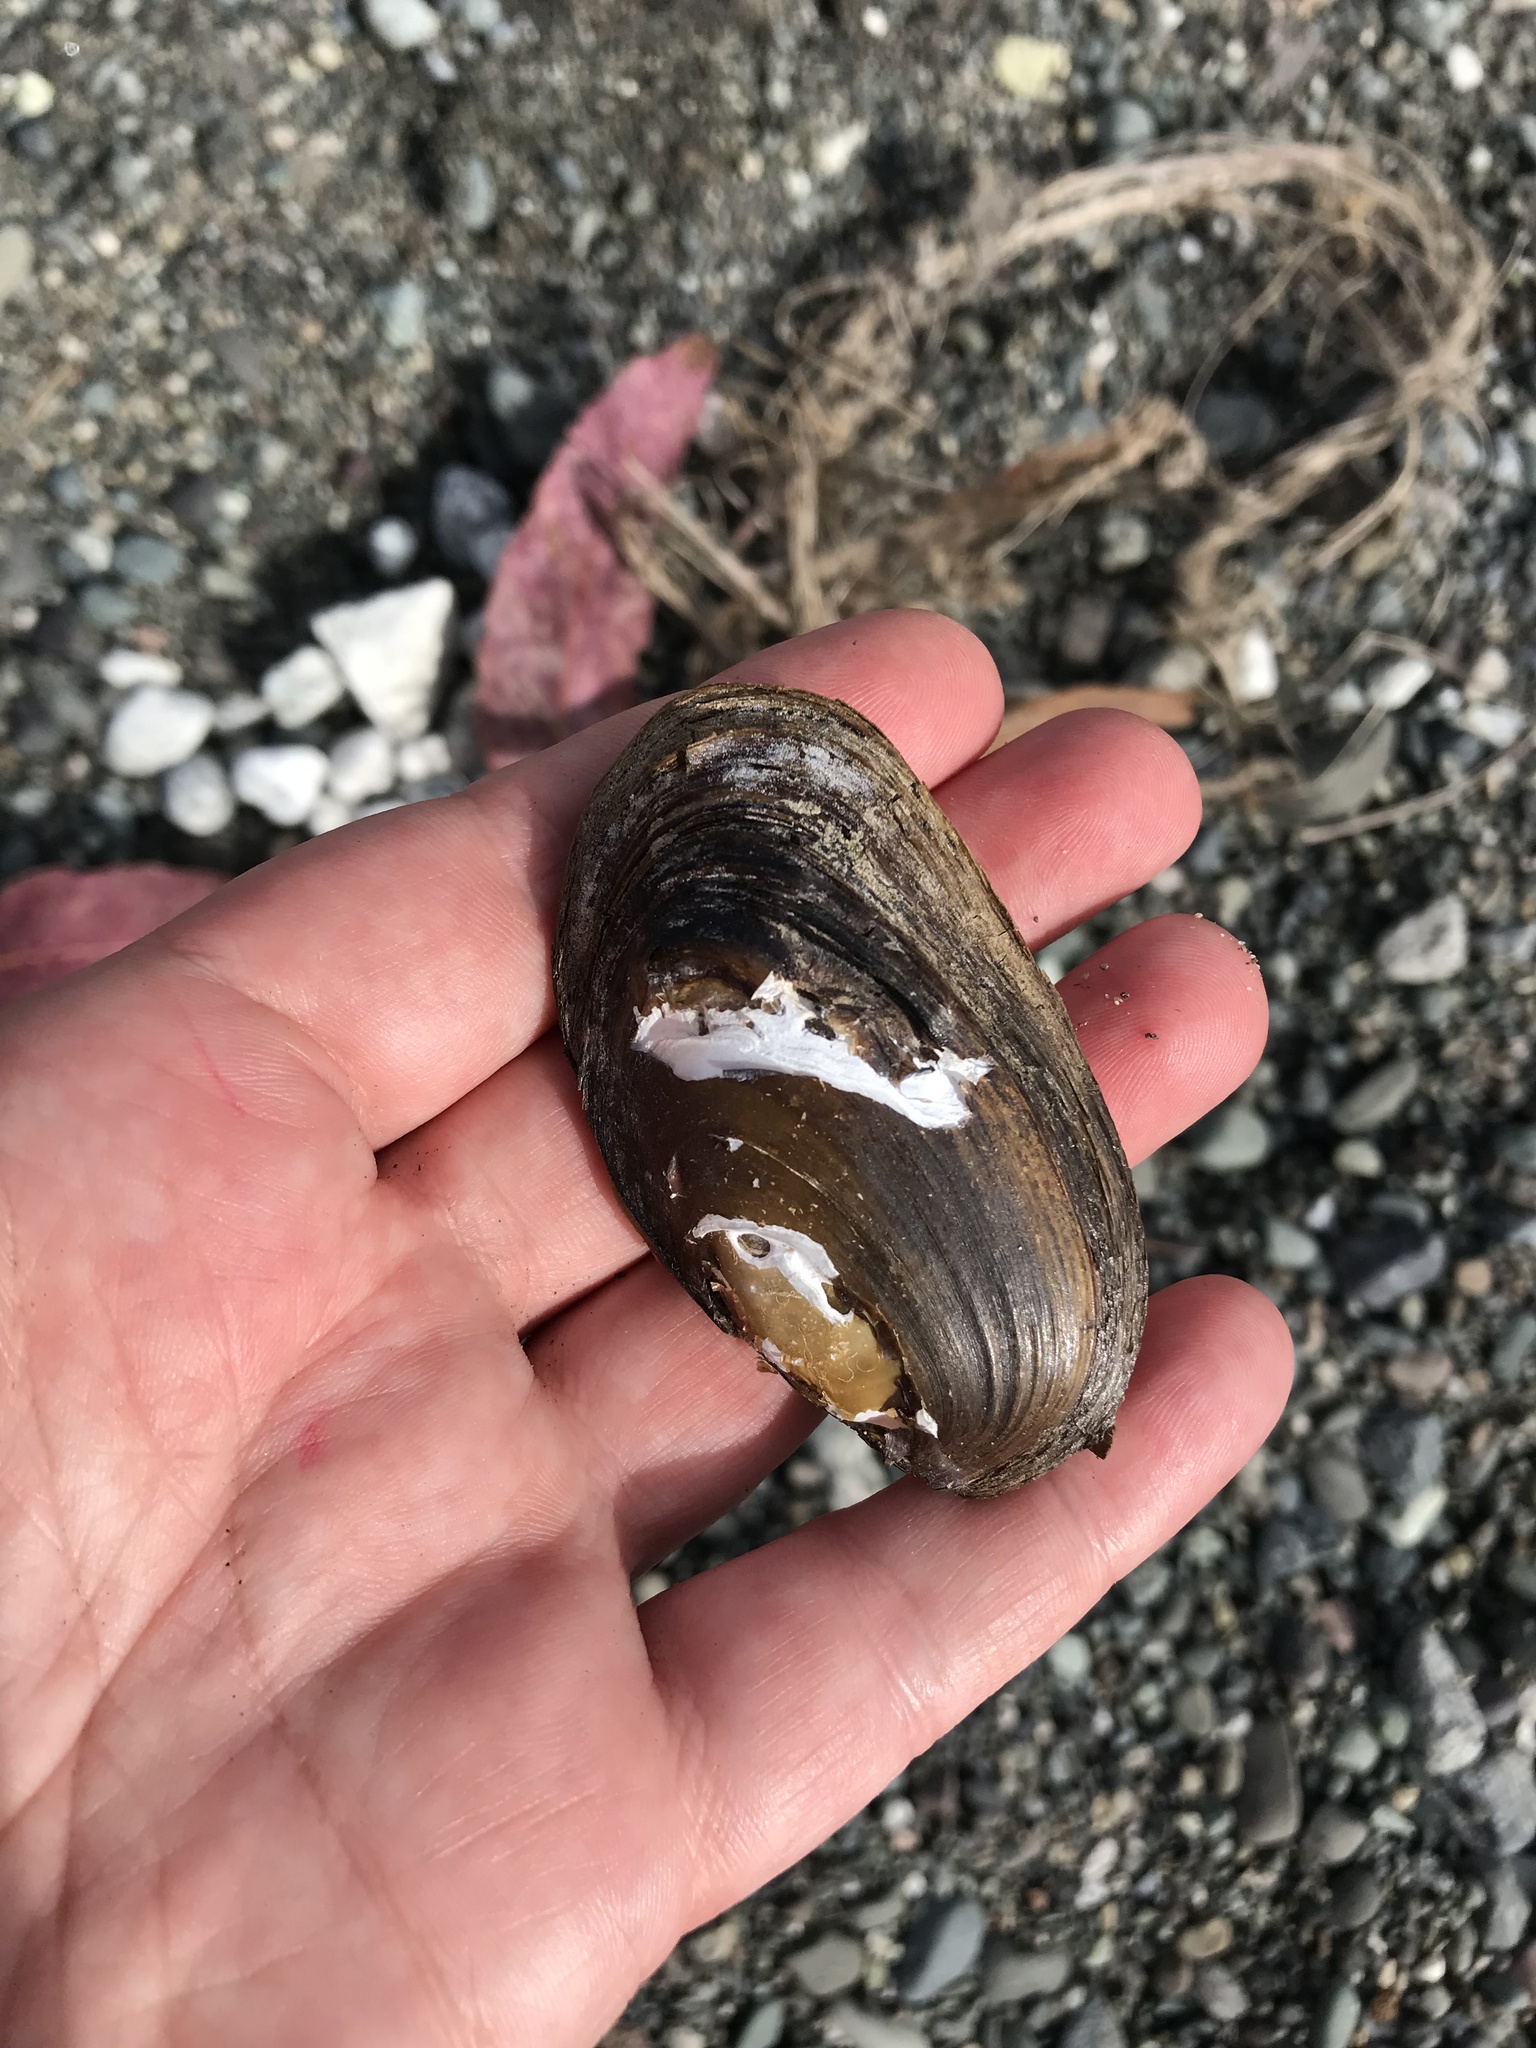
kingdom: Animalia
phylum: Mollusca
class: Bivalvia
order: Unionida
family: Hyriidae
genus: Echyridella
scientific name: Echyridella menziesii
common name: New zealand freshwater mussel
